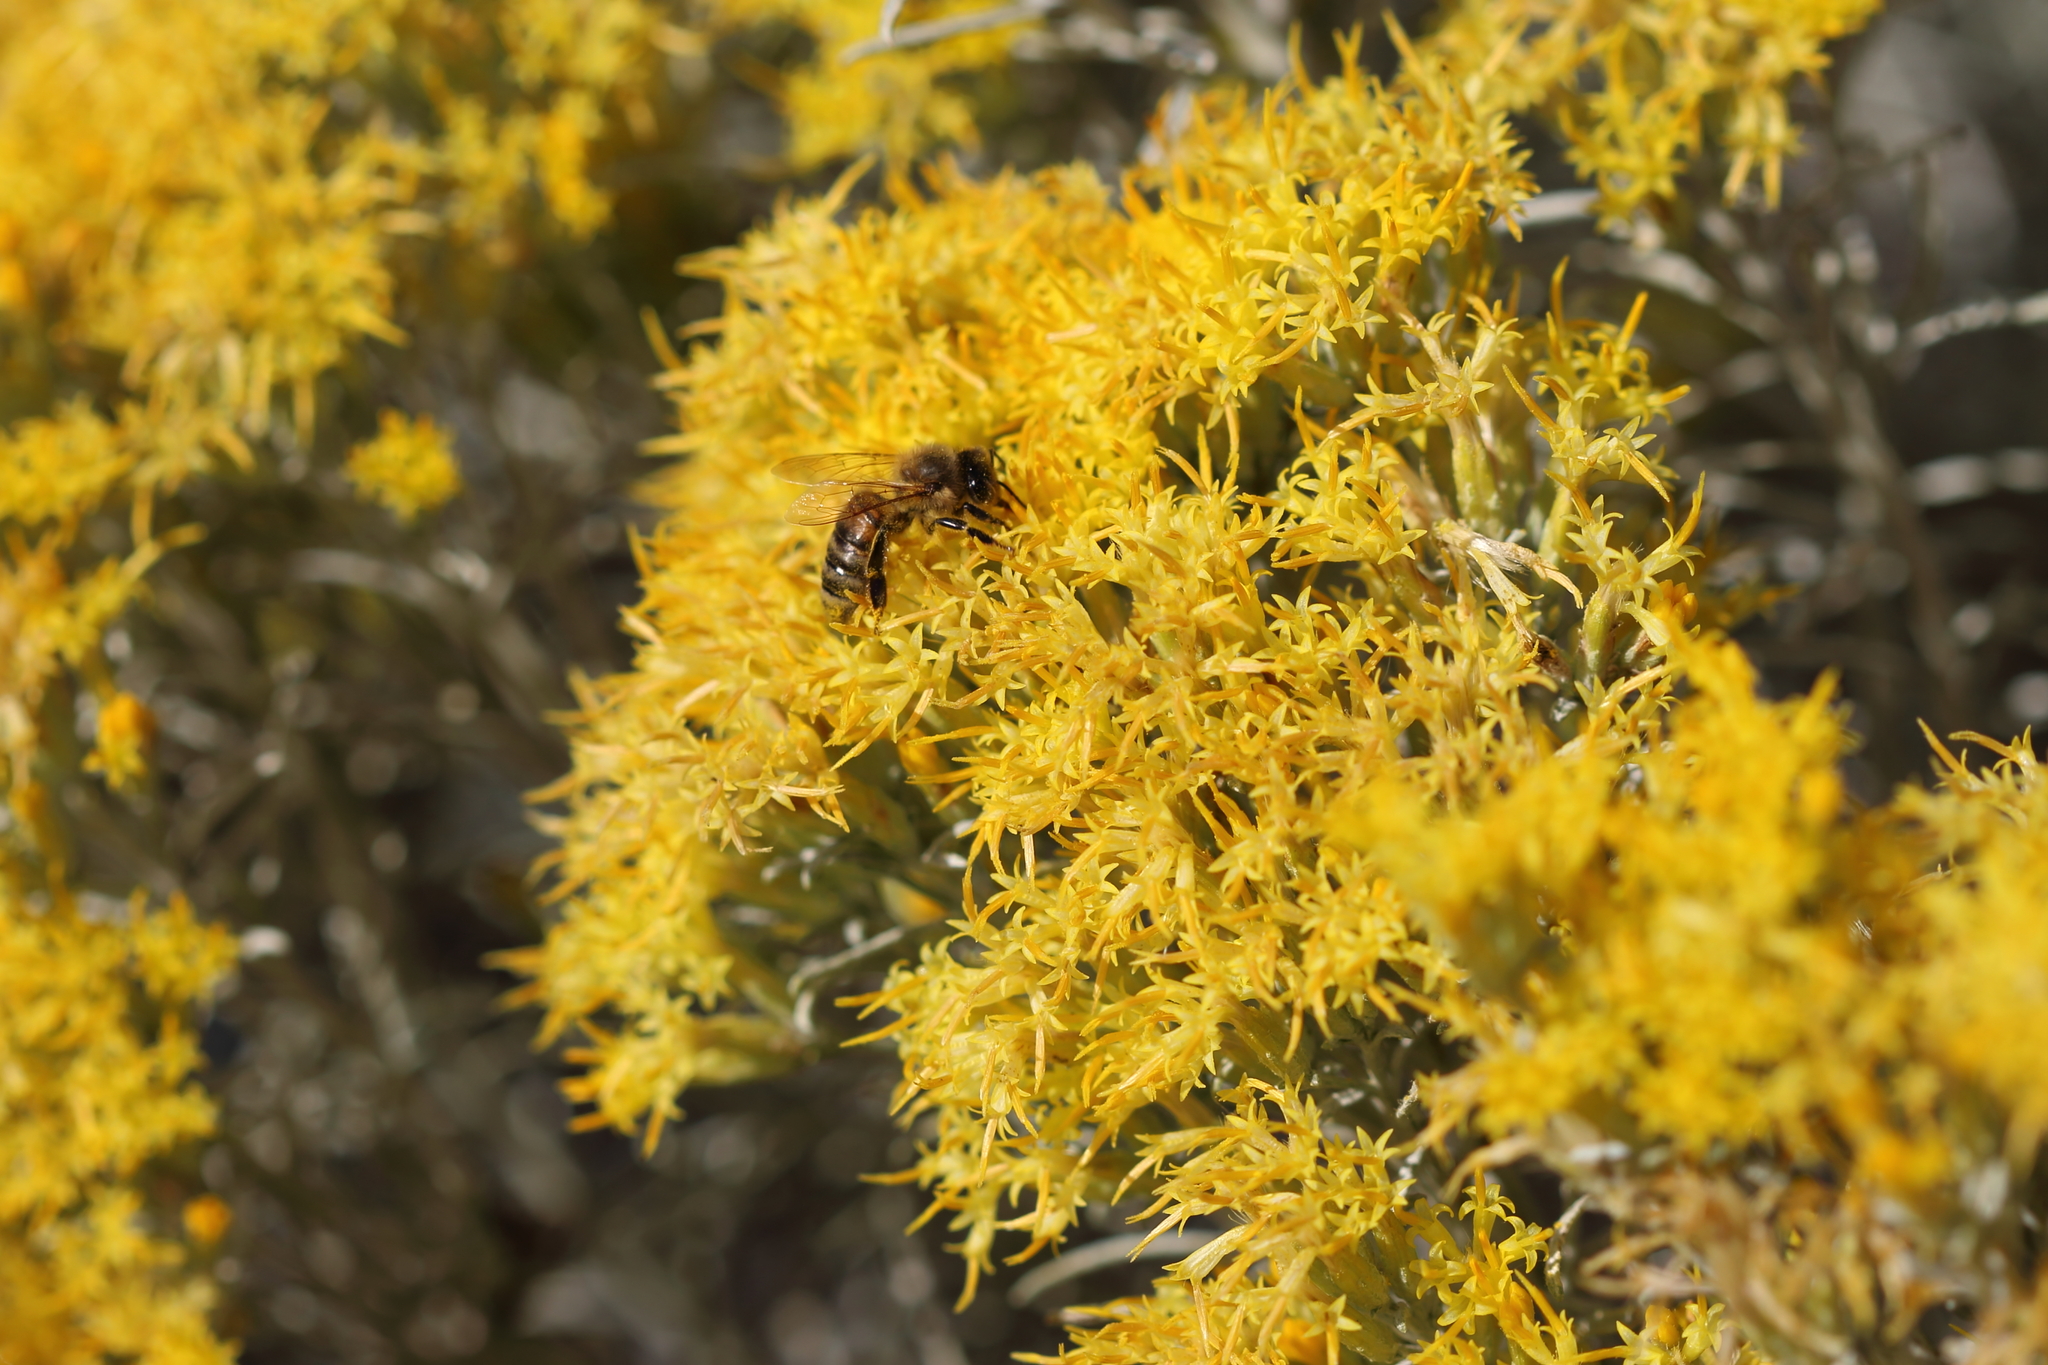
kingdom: Animalia
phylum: Arthropoda
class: Insecta
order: Hymenoptera
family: Apidae
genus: Apis
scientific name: Apis mellifera
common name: Honey bee
